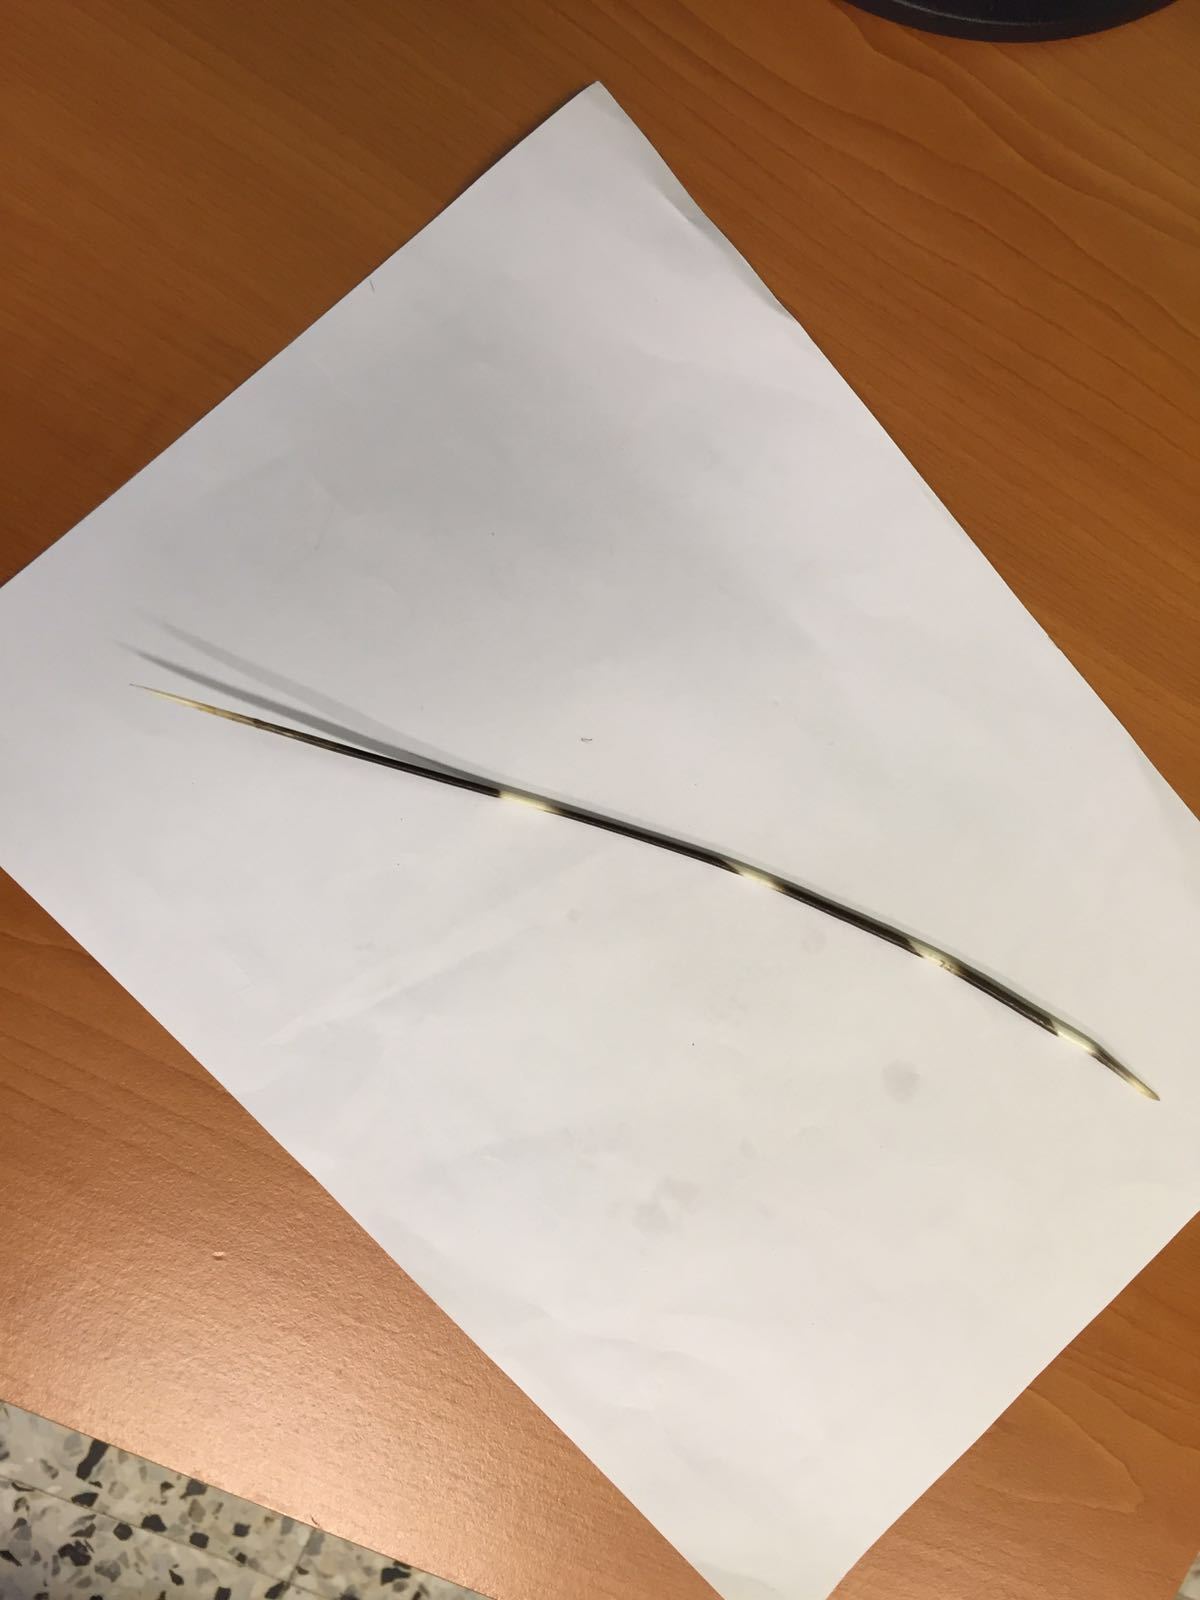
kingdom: Animalia
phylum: Chordata
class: Mammalia
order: Rodentia
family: Hystricidae
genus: Hystrix
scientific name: Hystrix cristata
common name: Crested porcupine
